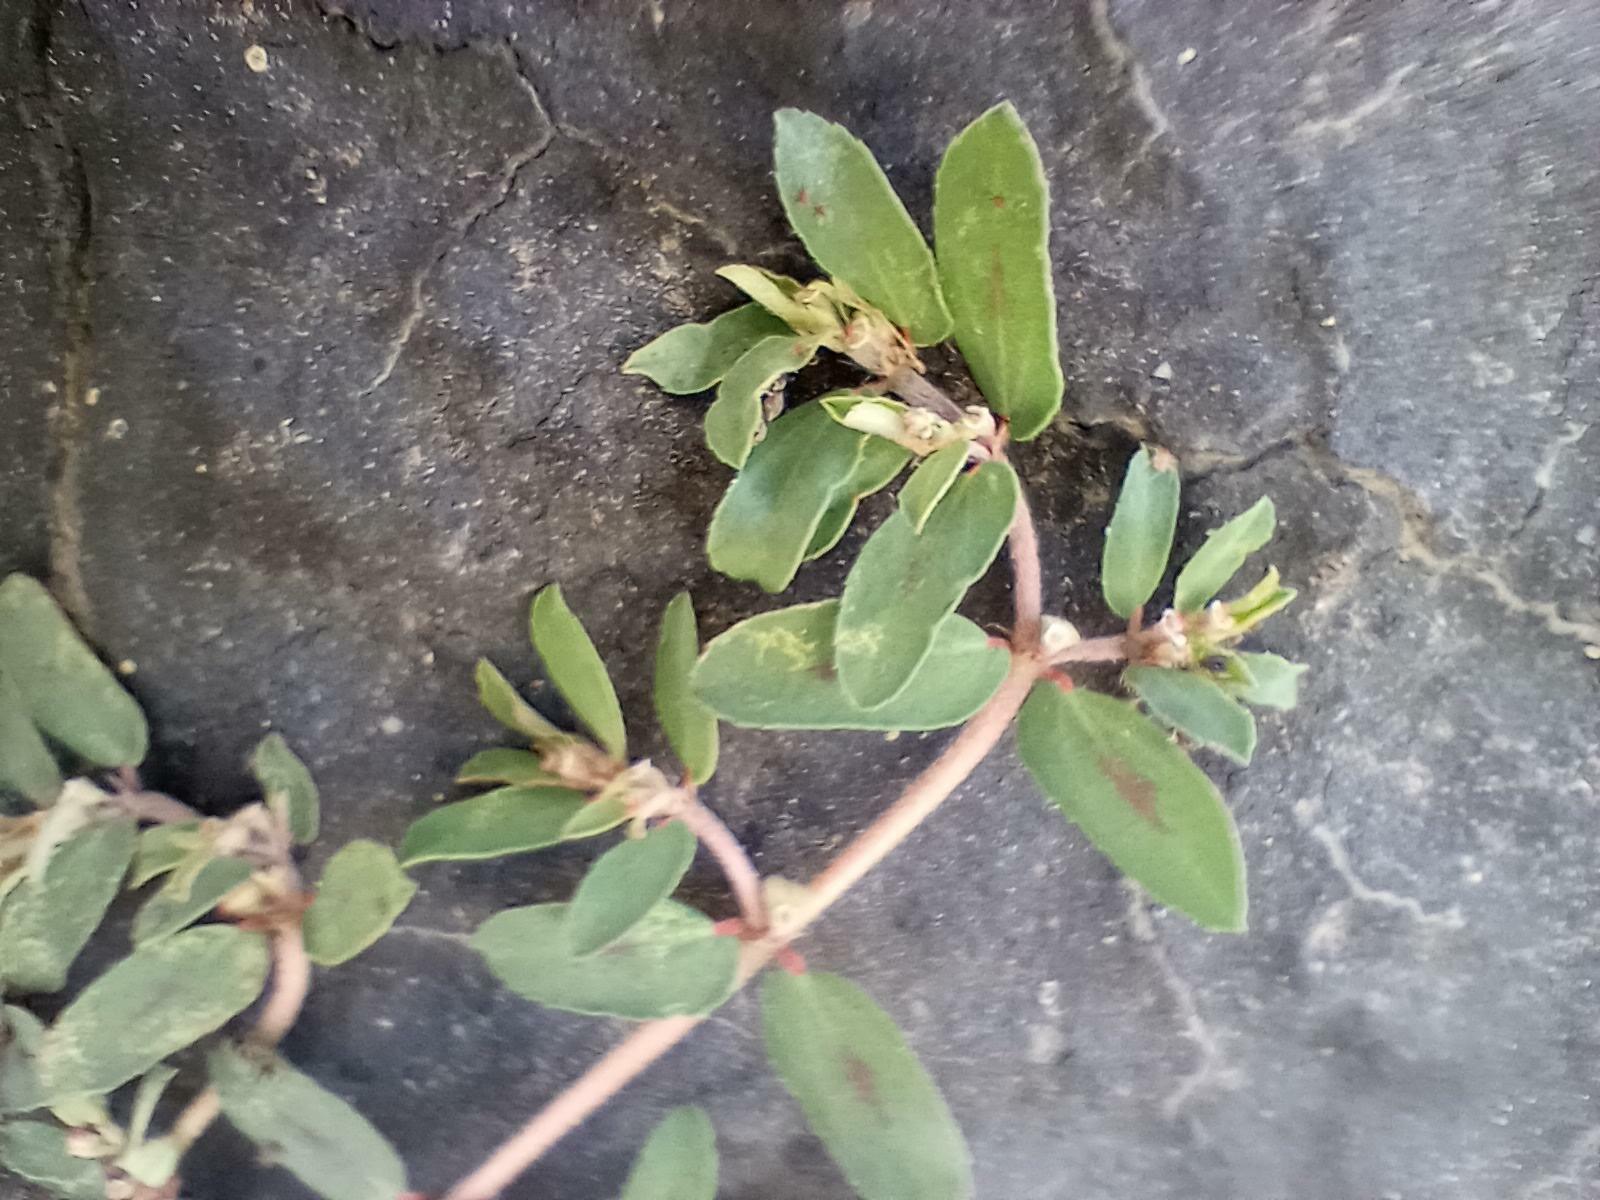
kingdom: Plantae
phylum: Tracheophyta
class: Magnoliopsida
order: Malpighiales
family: Euphorbiaceae
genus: Euphorbia
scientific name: Euphorbia maculata
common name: Spotted spurge
